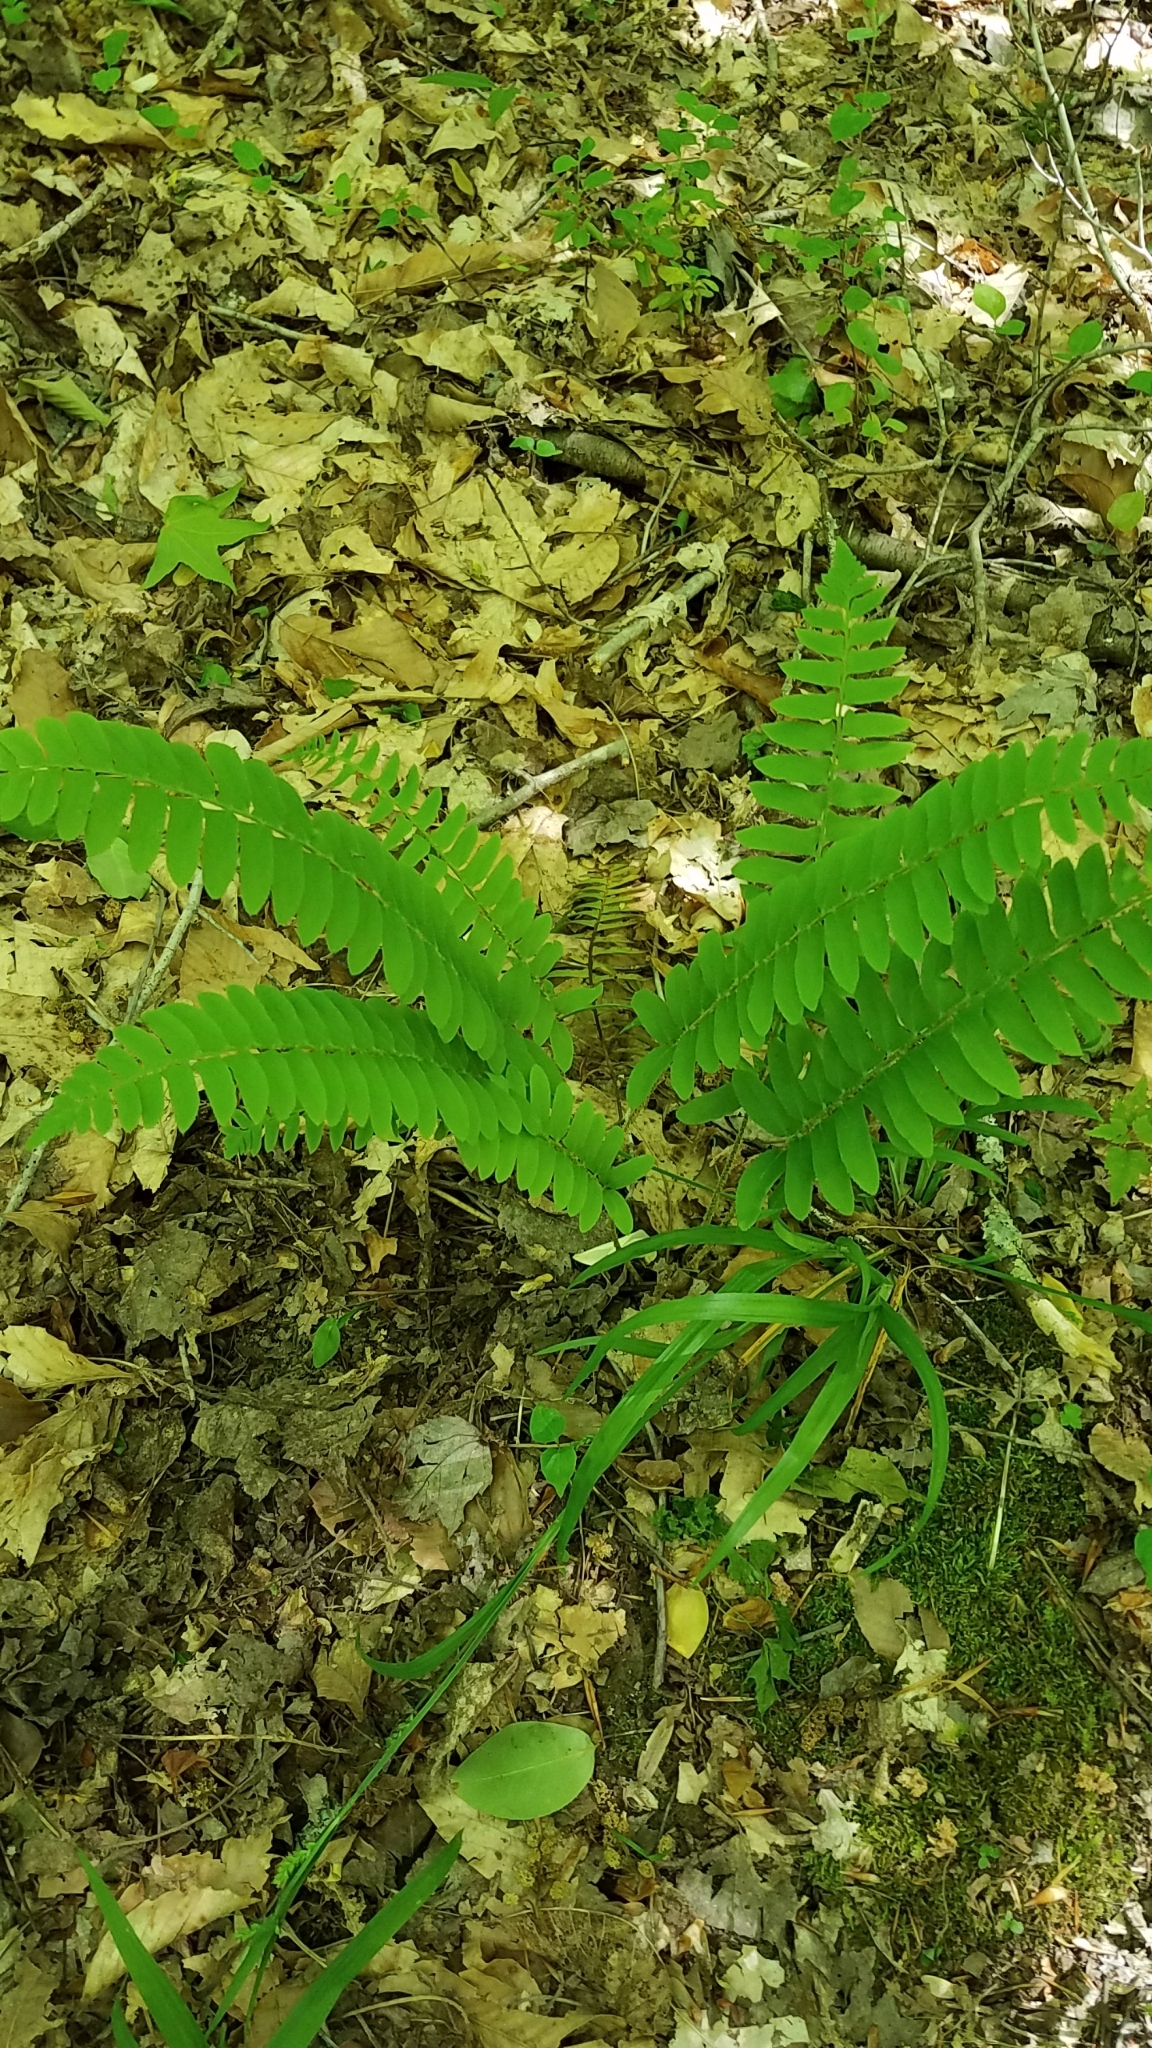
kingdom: Plantae
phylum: Tracheophyta
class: Polypodiopsida
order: Polypodiales
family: Dryopteridaceae
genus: Polystichum
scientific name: Polystichum acrostichoides
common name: Christmas fern
